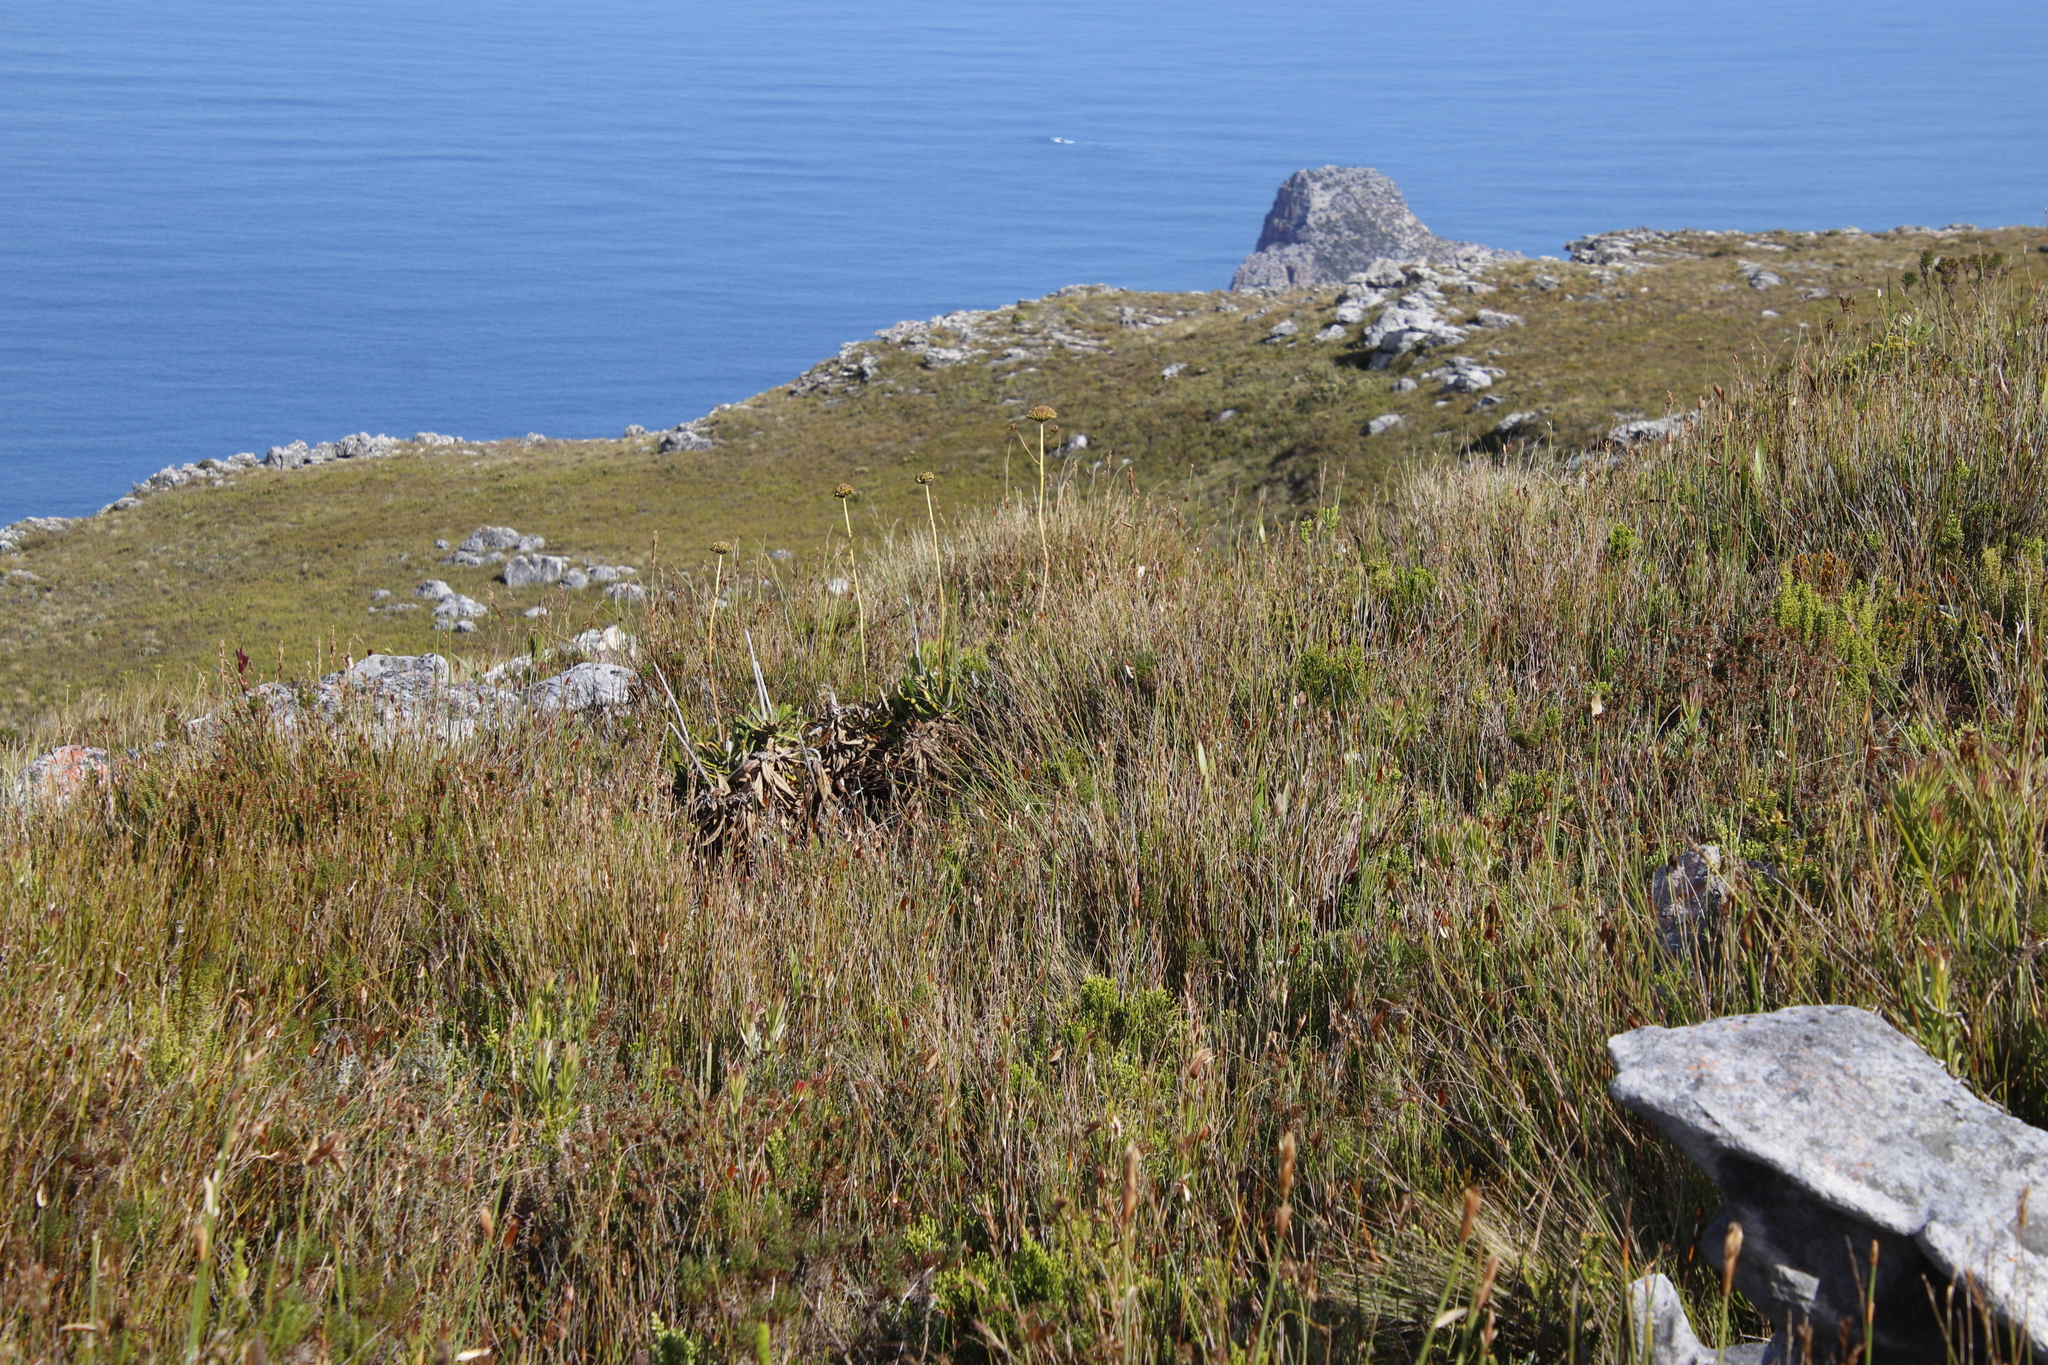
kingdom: Plantae
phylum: Tracheophyta
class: Magnoliopsida
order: Apiales
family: Apiaceae
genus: Hermas
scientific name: Hermas villosa
